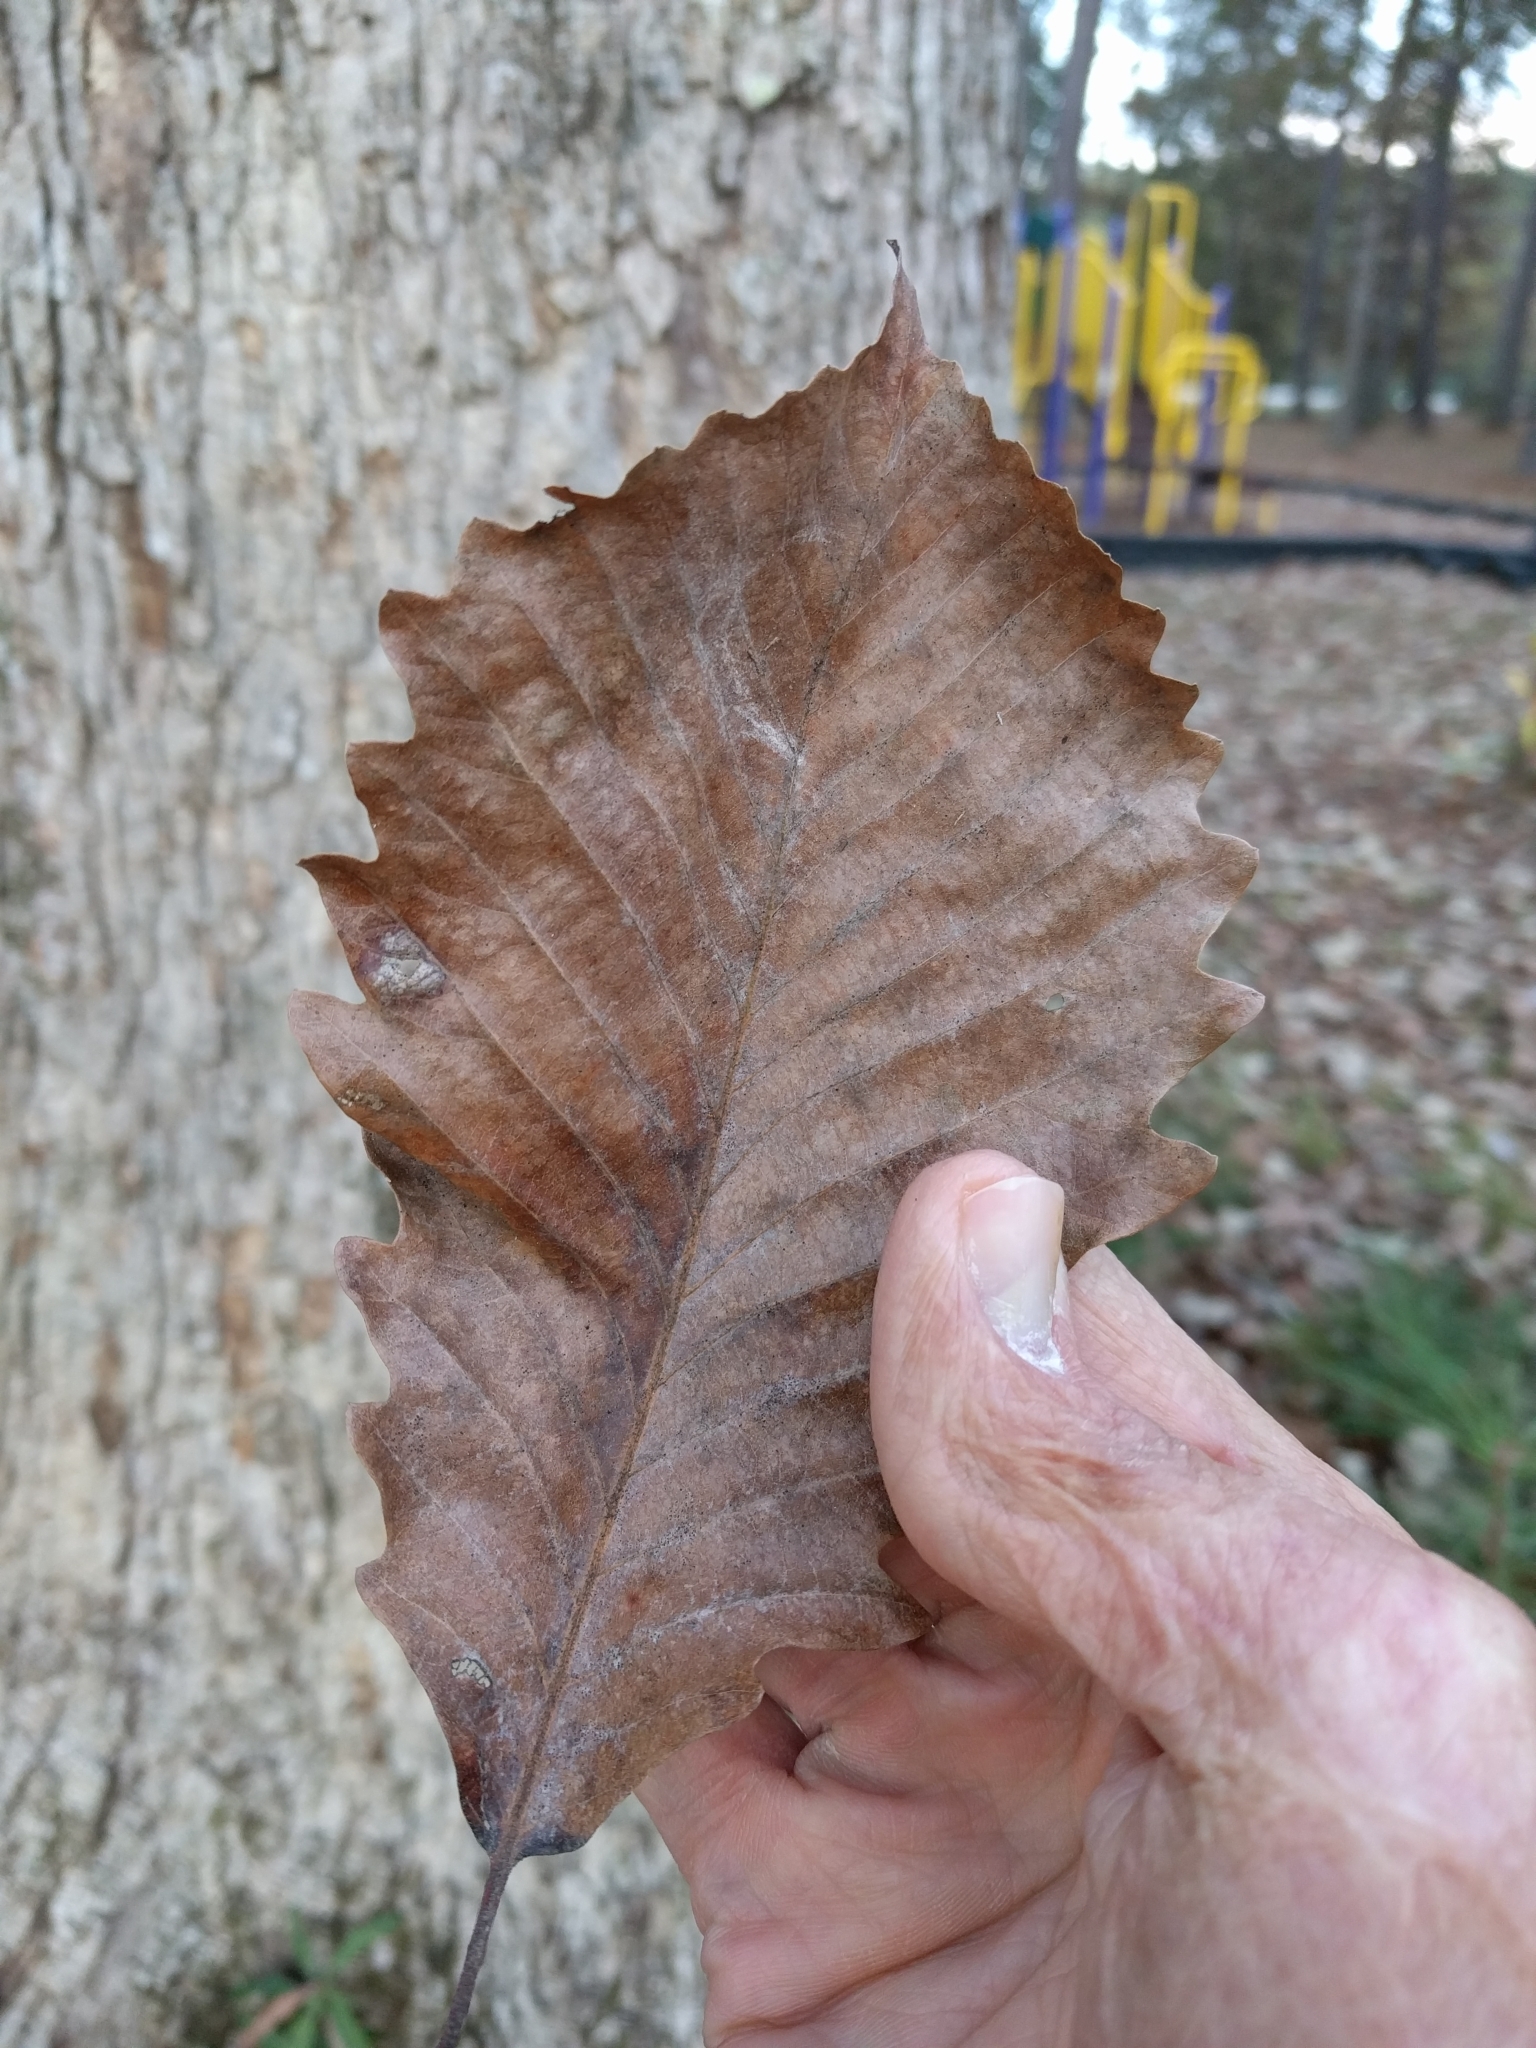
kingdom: Plantae
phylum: Tracheophyta
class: Magnoliopsida
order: Fagales
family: Fagaceae
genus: Quercus
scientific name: Quercus michauxii
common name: Swamp chestnut oak
